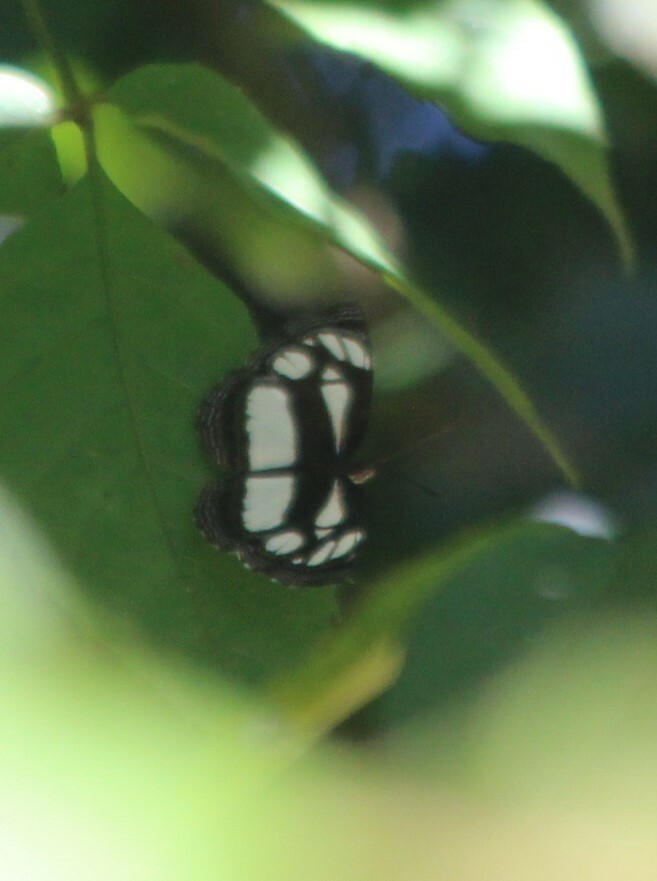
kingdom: Animalia
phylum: Arthropoda
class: Insecta
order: Lepidoptera
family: Nymphalidae
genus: Neptis
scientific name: Neptis agouale
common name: Common club-dot sailer
